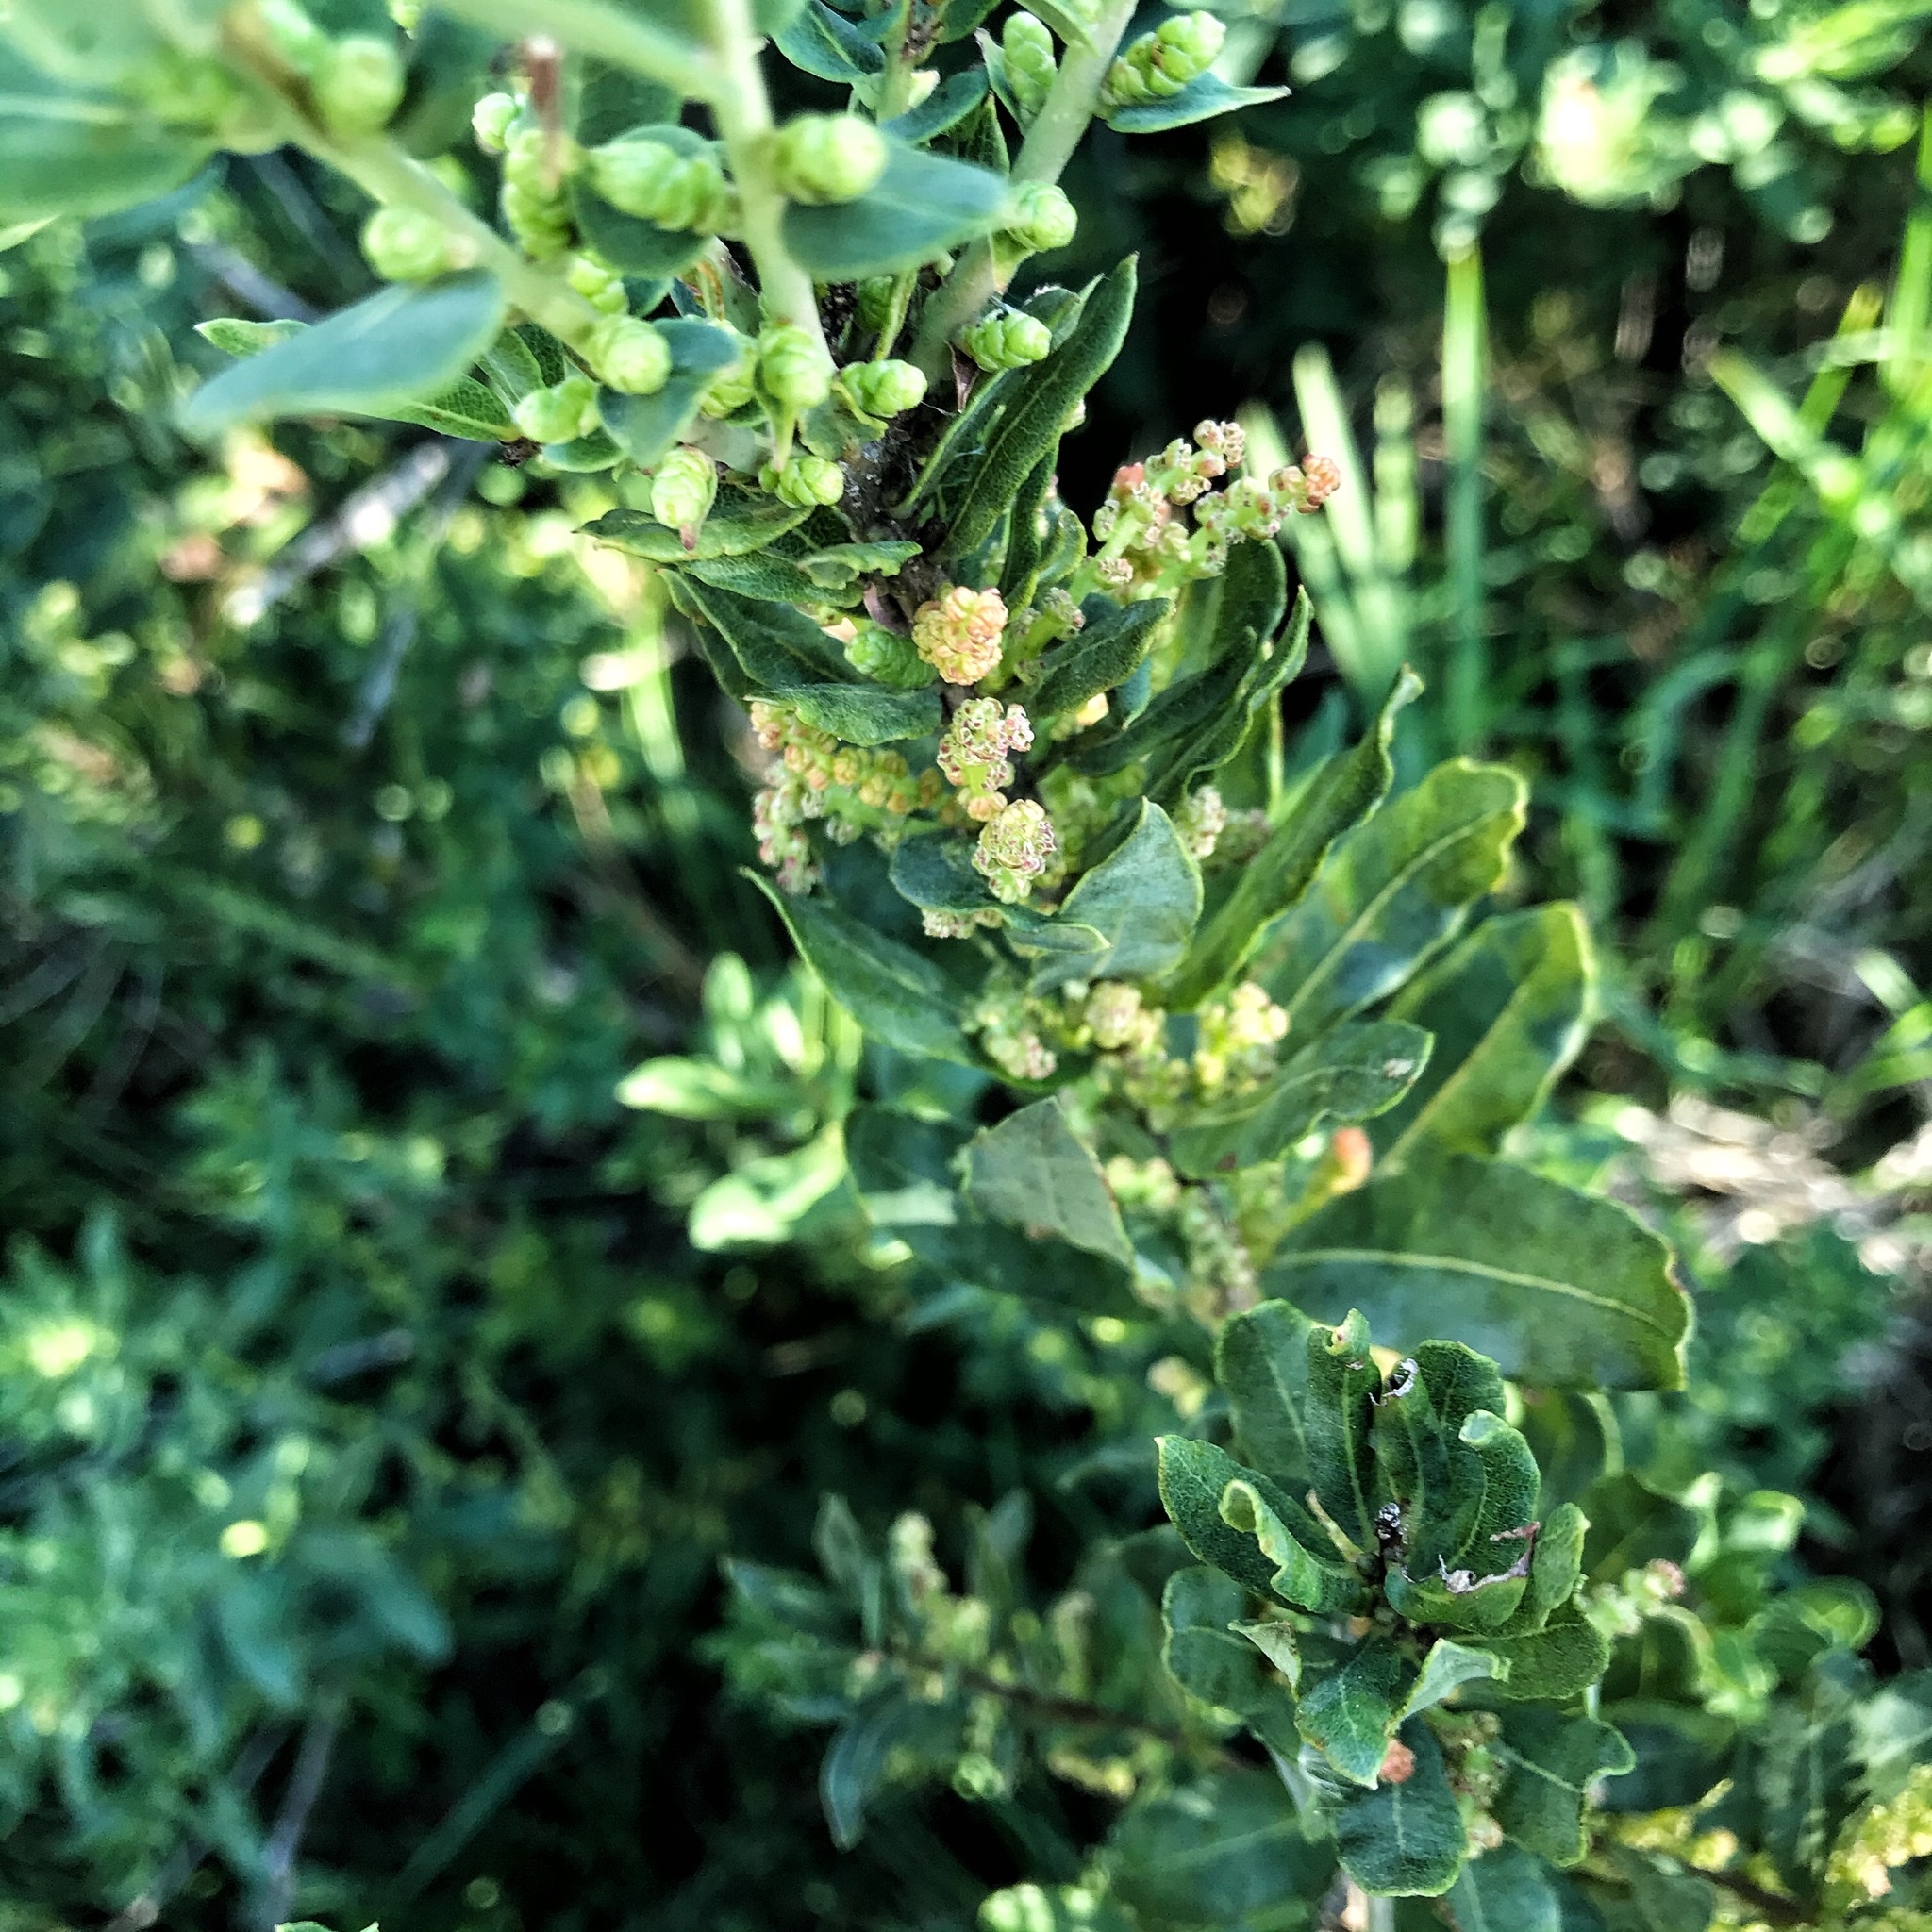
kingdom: Plantae
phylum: Tracheophyta
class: Magnoliopsida
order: Fagales
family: Myricaceae
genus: Morella
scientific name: Morella humilis
